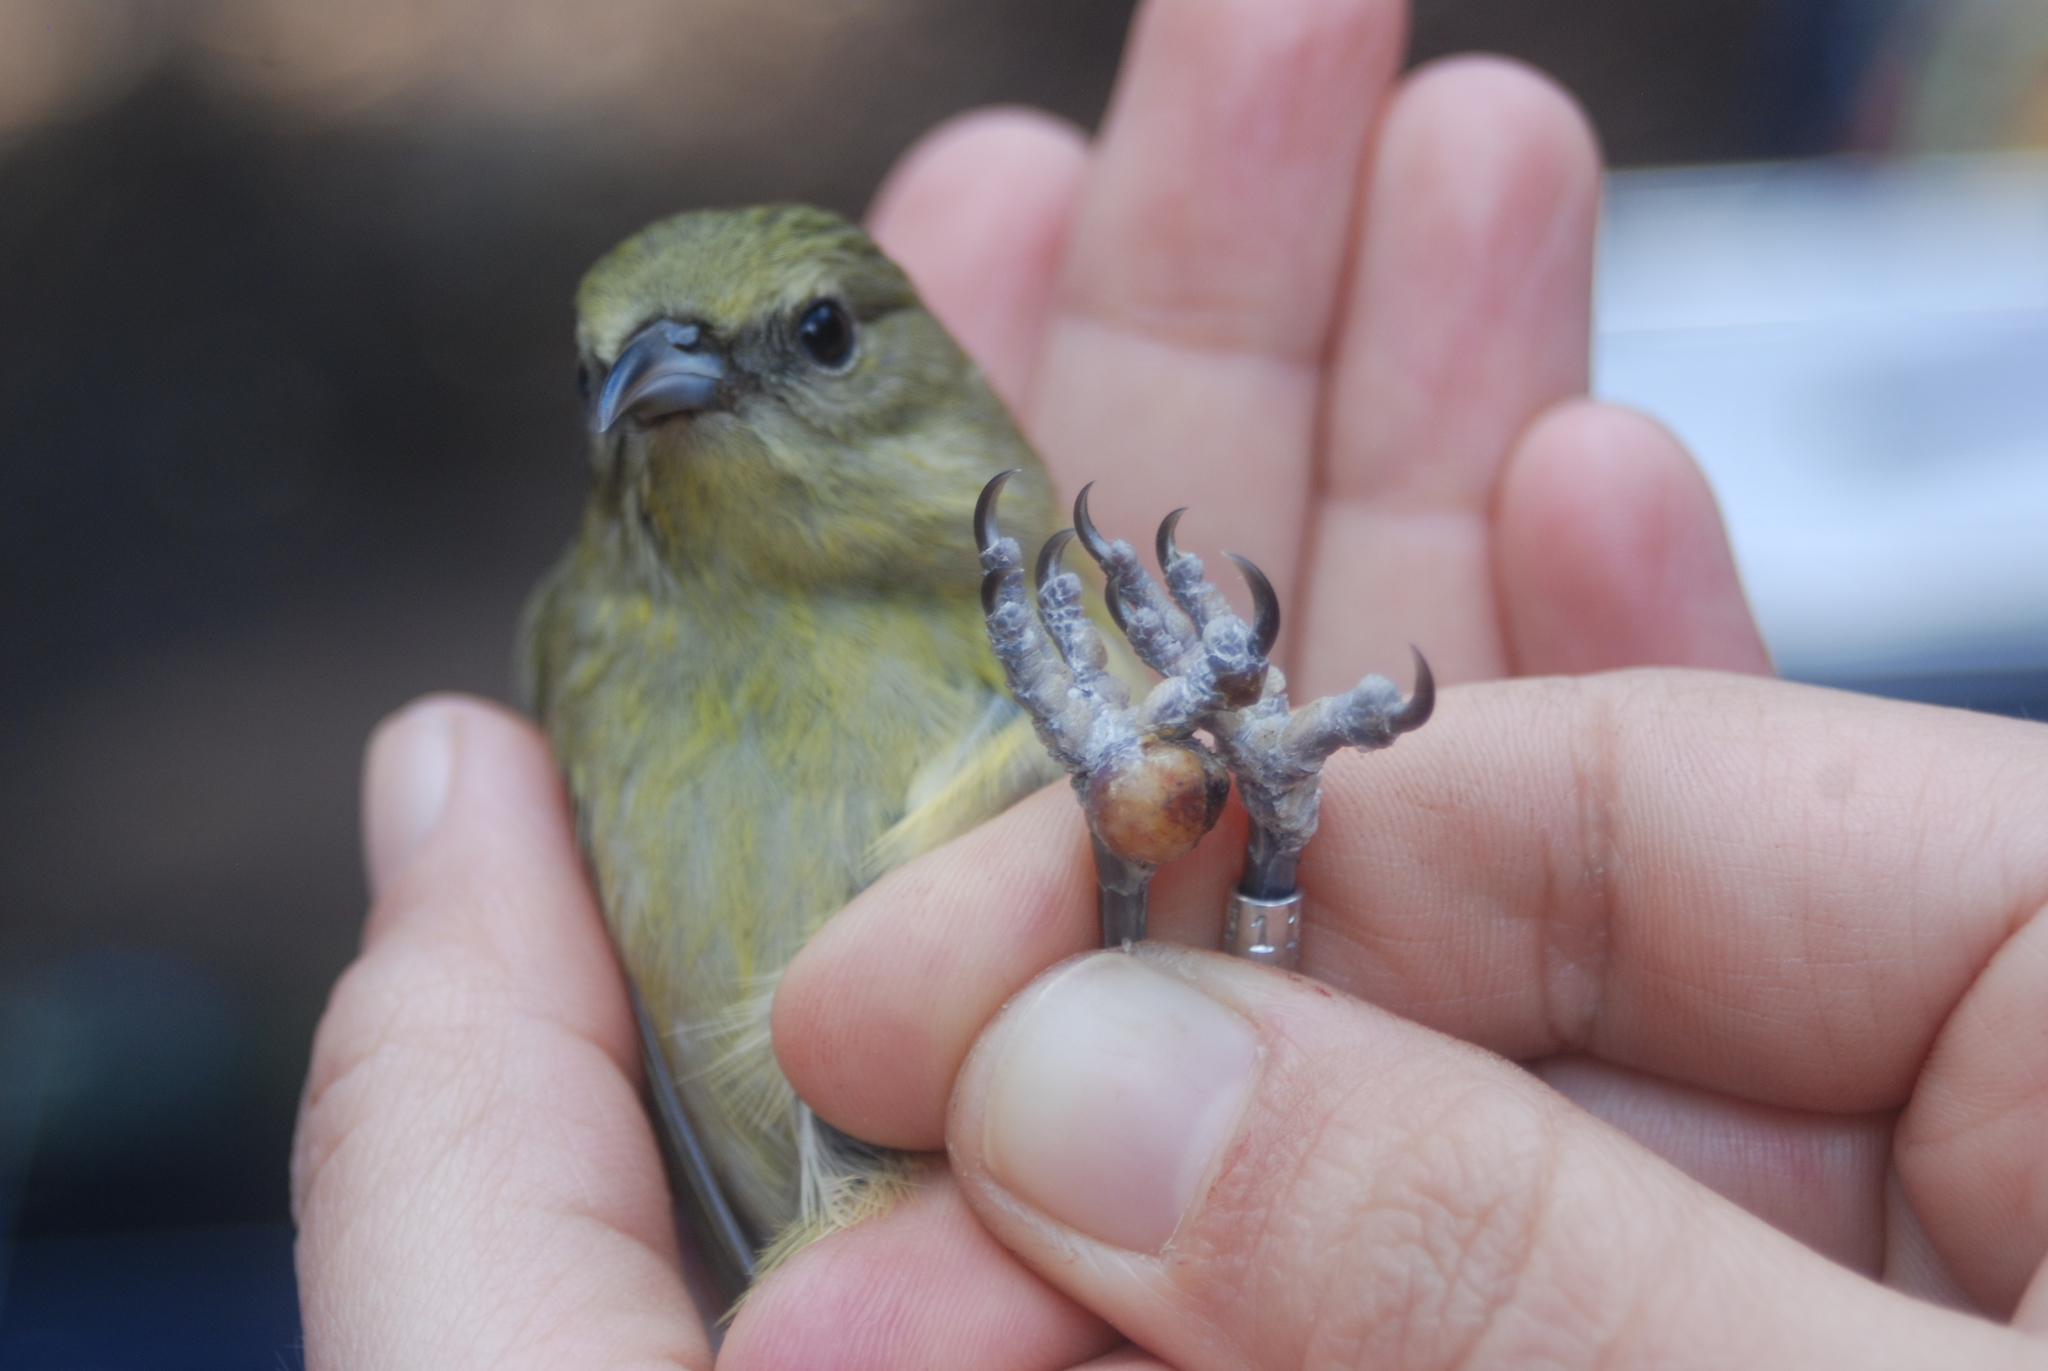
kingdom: Animalia
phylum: Chordata
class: Aves
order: Passeriformes
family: Fringillidae
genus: Chlorodrepanis
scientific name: Chlorodrepanis virens
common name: Hawaii amakihi
